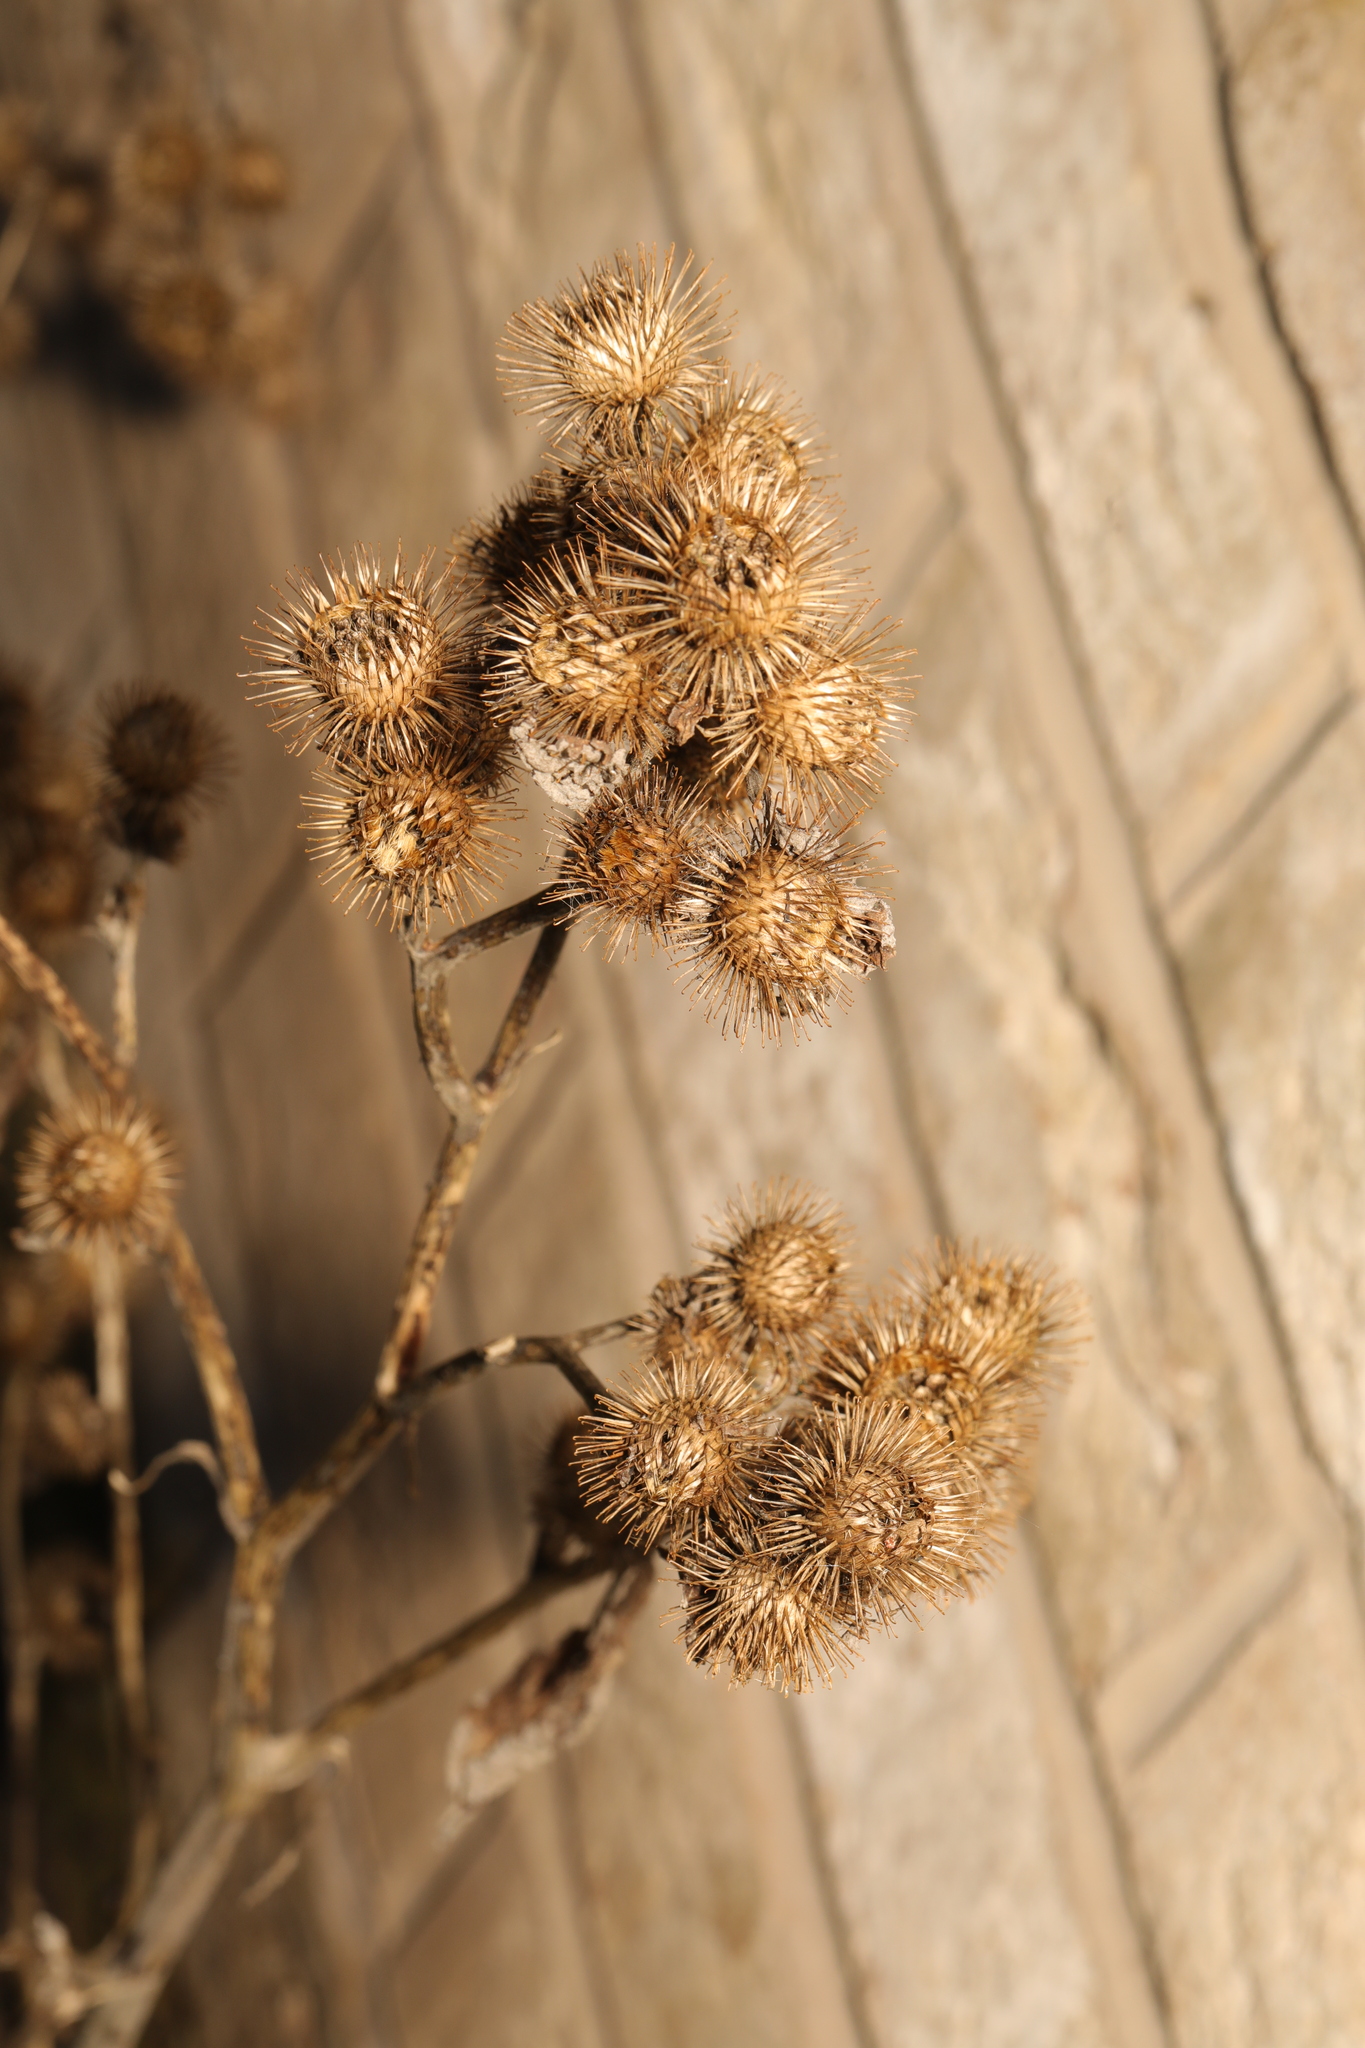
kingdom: Plantae
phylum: Tracheophyta
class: Magnoliopsida
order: Asterales
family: Asteraceae
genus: Arctium
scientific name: Arctium minus
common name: Lesser burdock
